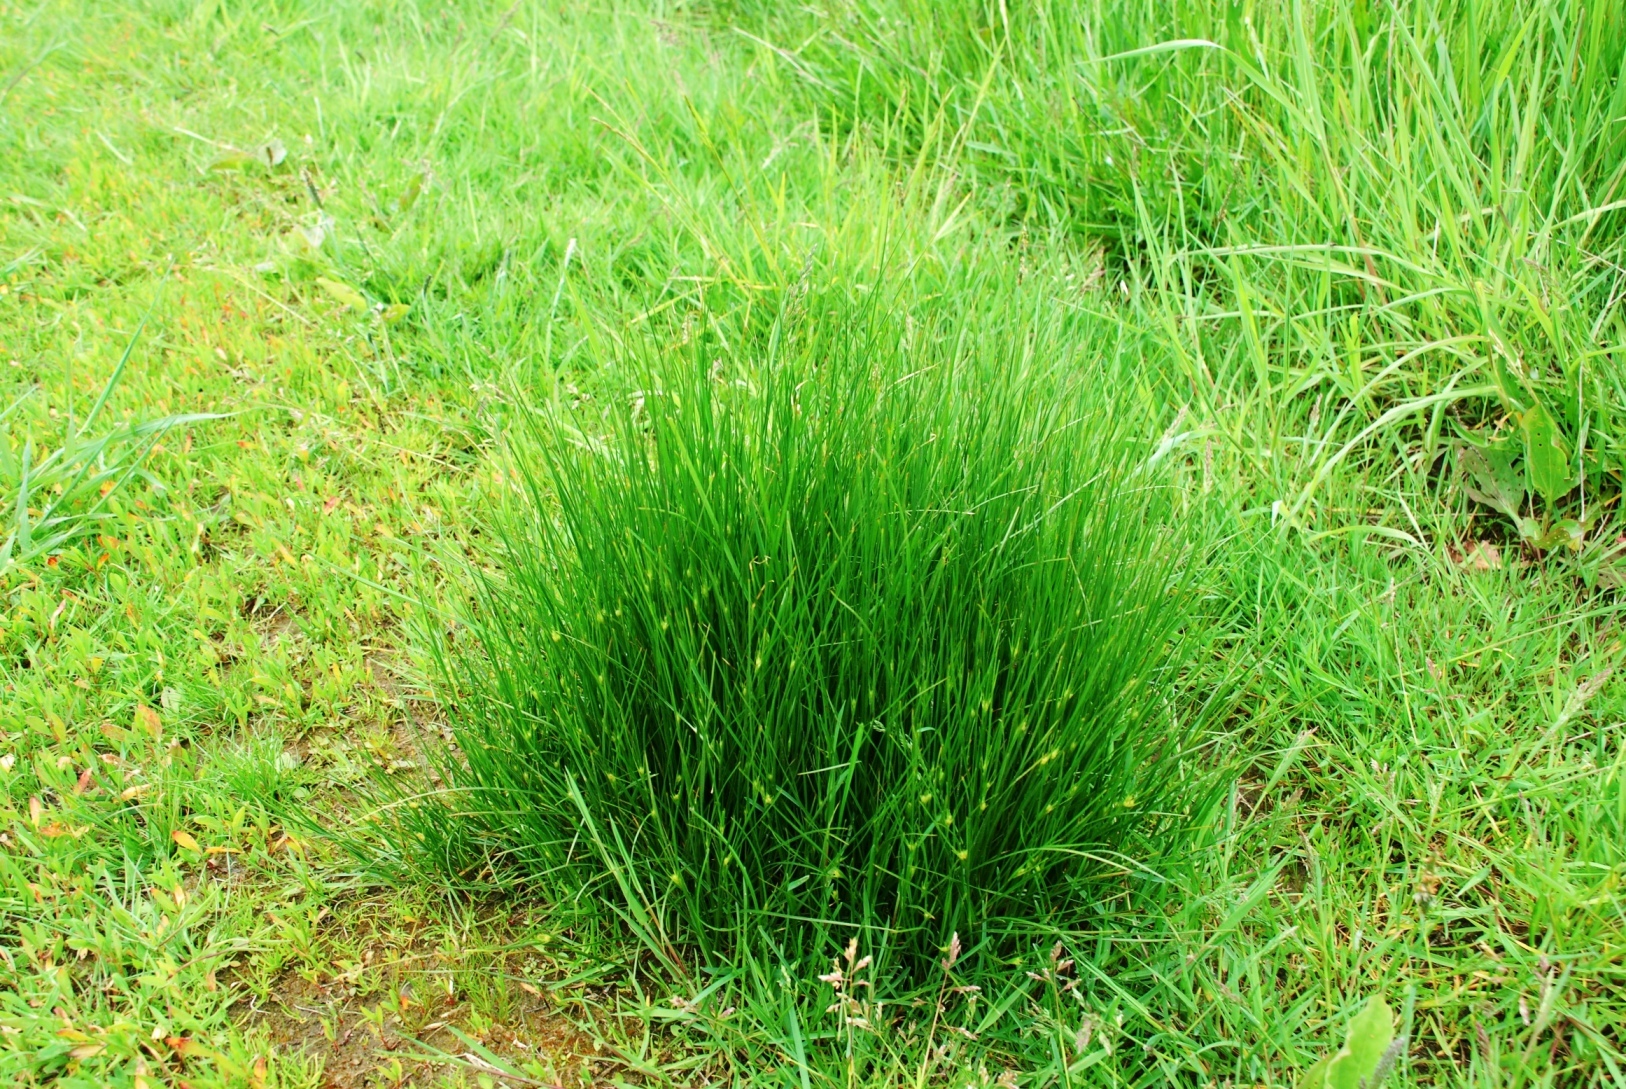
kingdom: Plantae
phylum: Tracheophyta
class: Liliopsida
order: Poales
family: Juncaceae
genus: Juncus
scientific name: Juncus tenuis
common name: Slender rush
